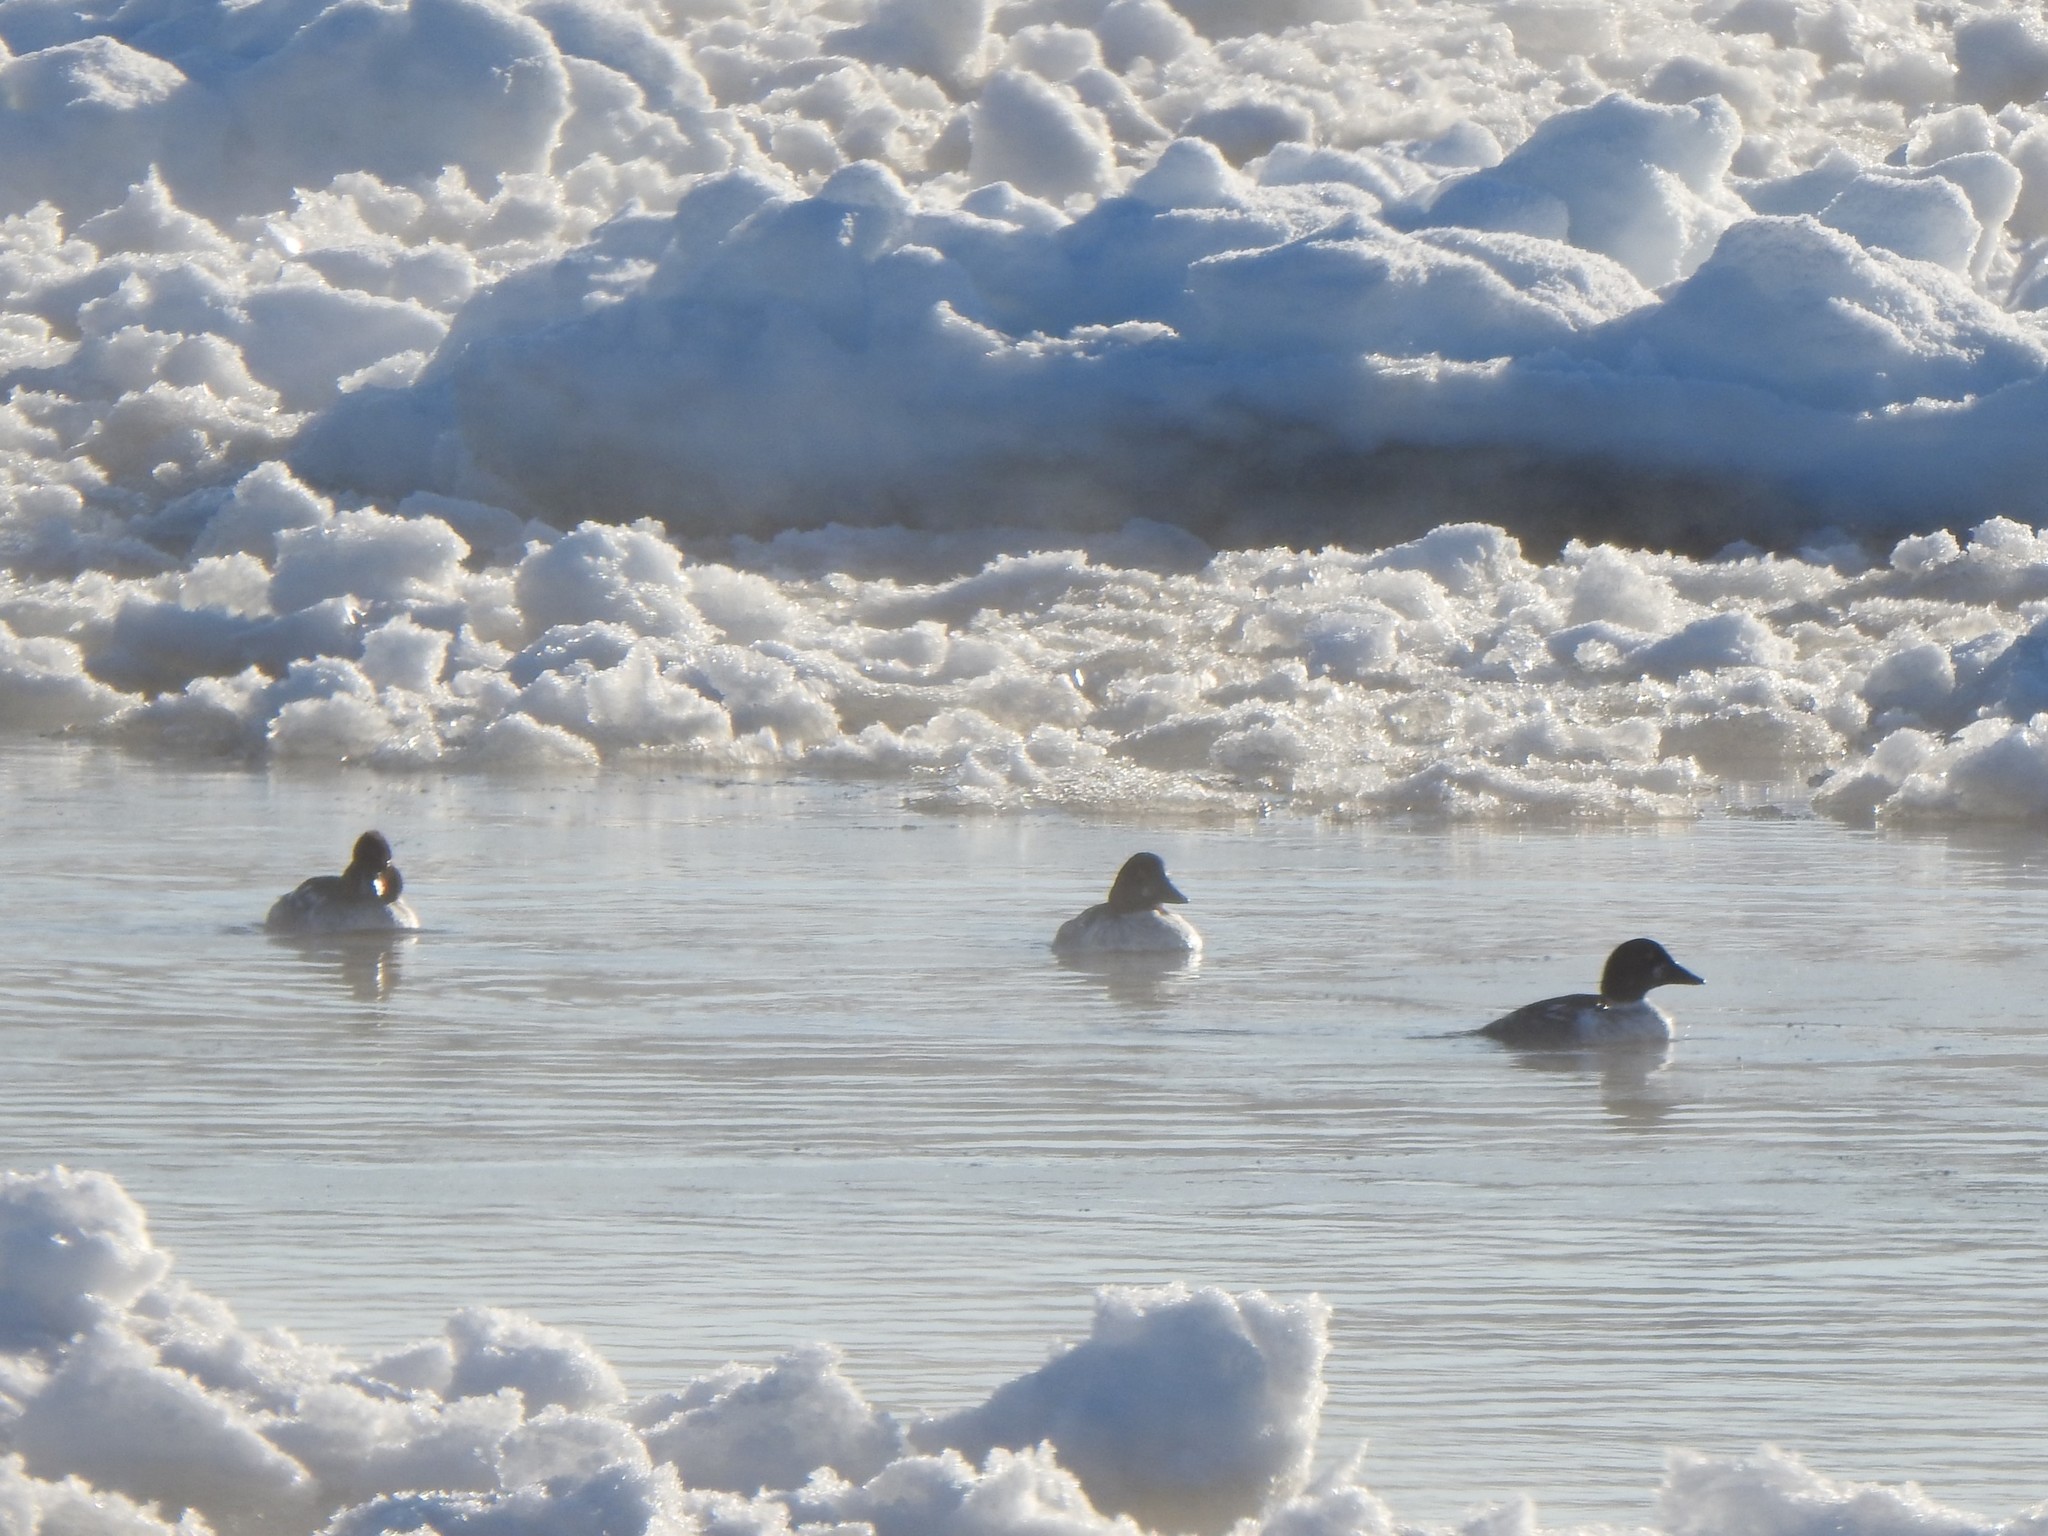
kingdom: Animalia
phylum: Chordata
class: Aves
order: Anseriformes
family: Anatidae
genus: Bucephala
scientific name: Bucephala clangula
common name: Common goldeneye
